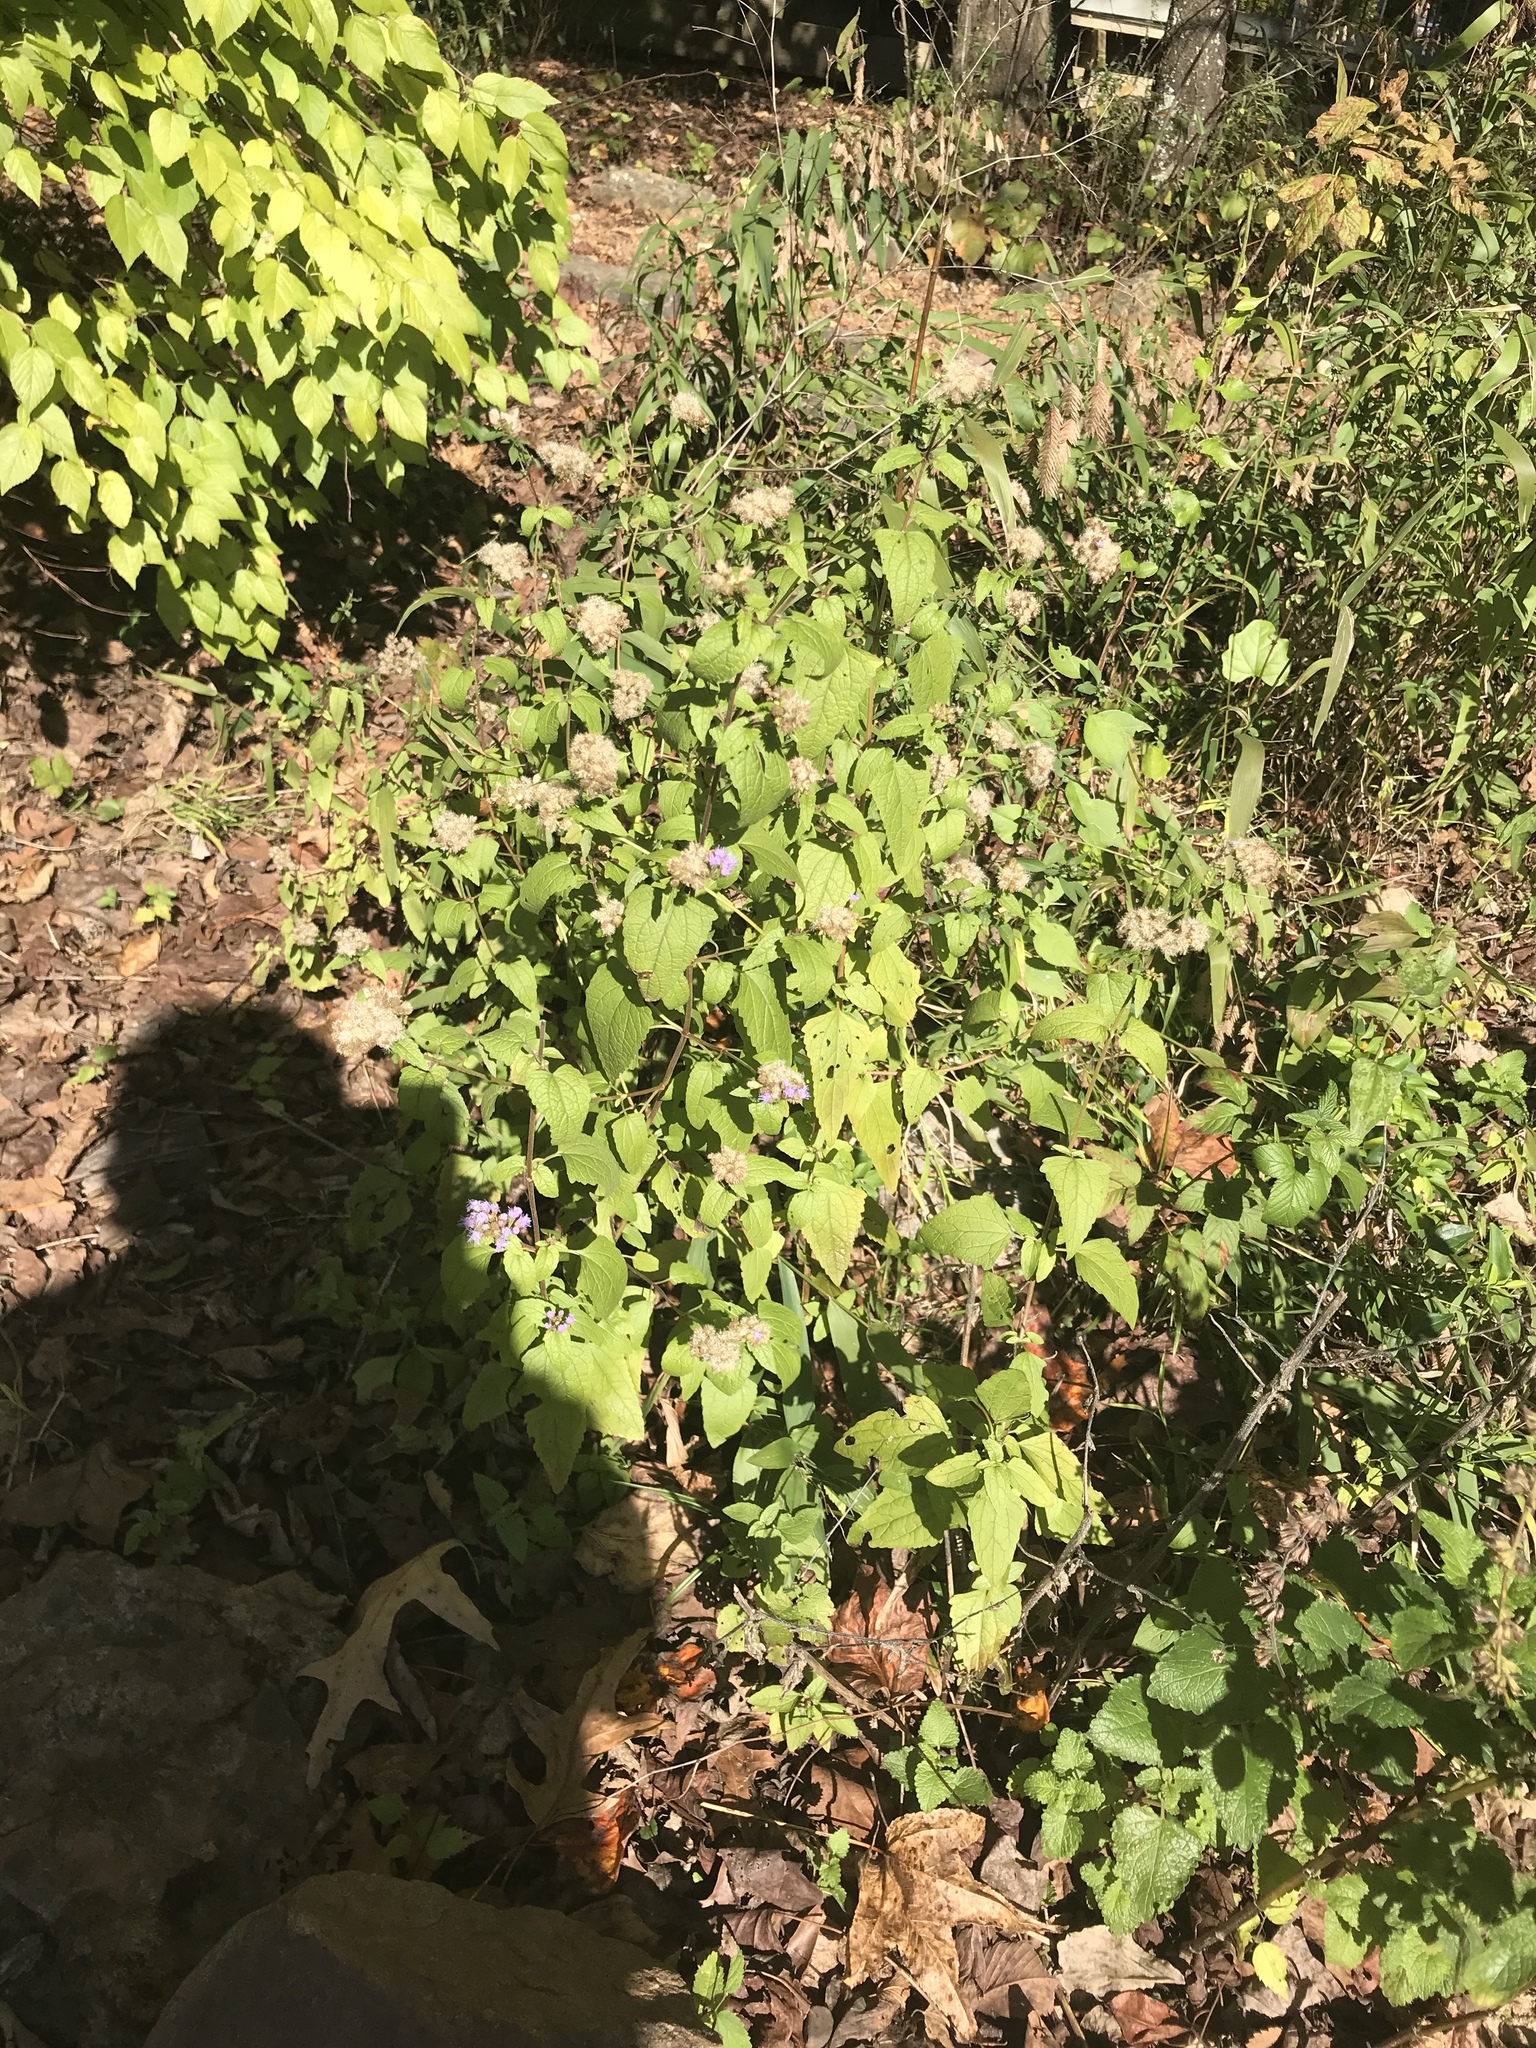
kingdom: Plantae
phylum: Tracheophyta
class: Magnoliopsida
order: Asterales
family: Asteraceae
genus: Conoclinium
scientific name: Conoclinium coelestinum
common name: Blue mistflower
